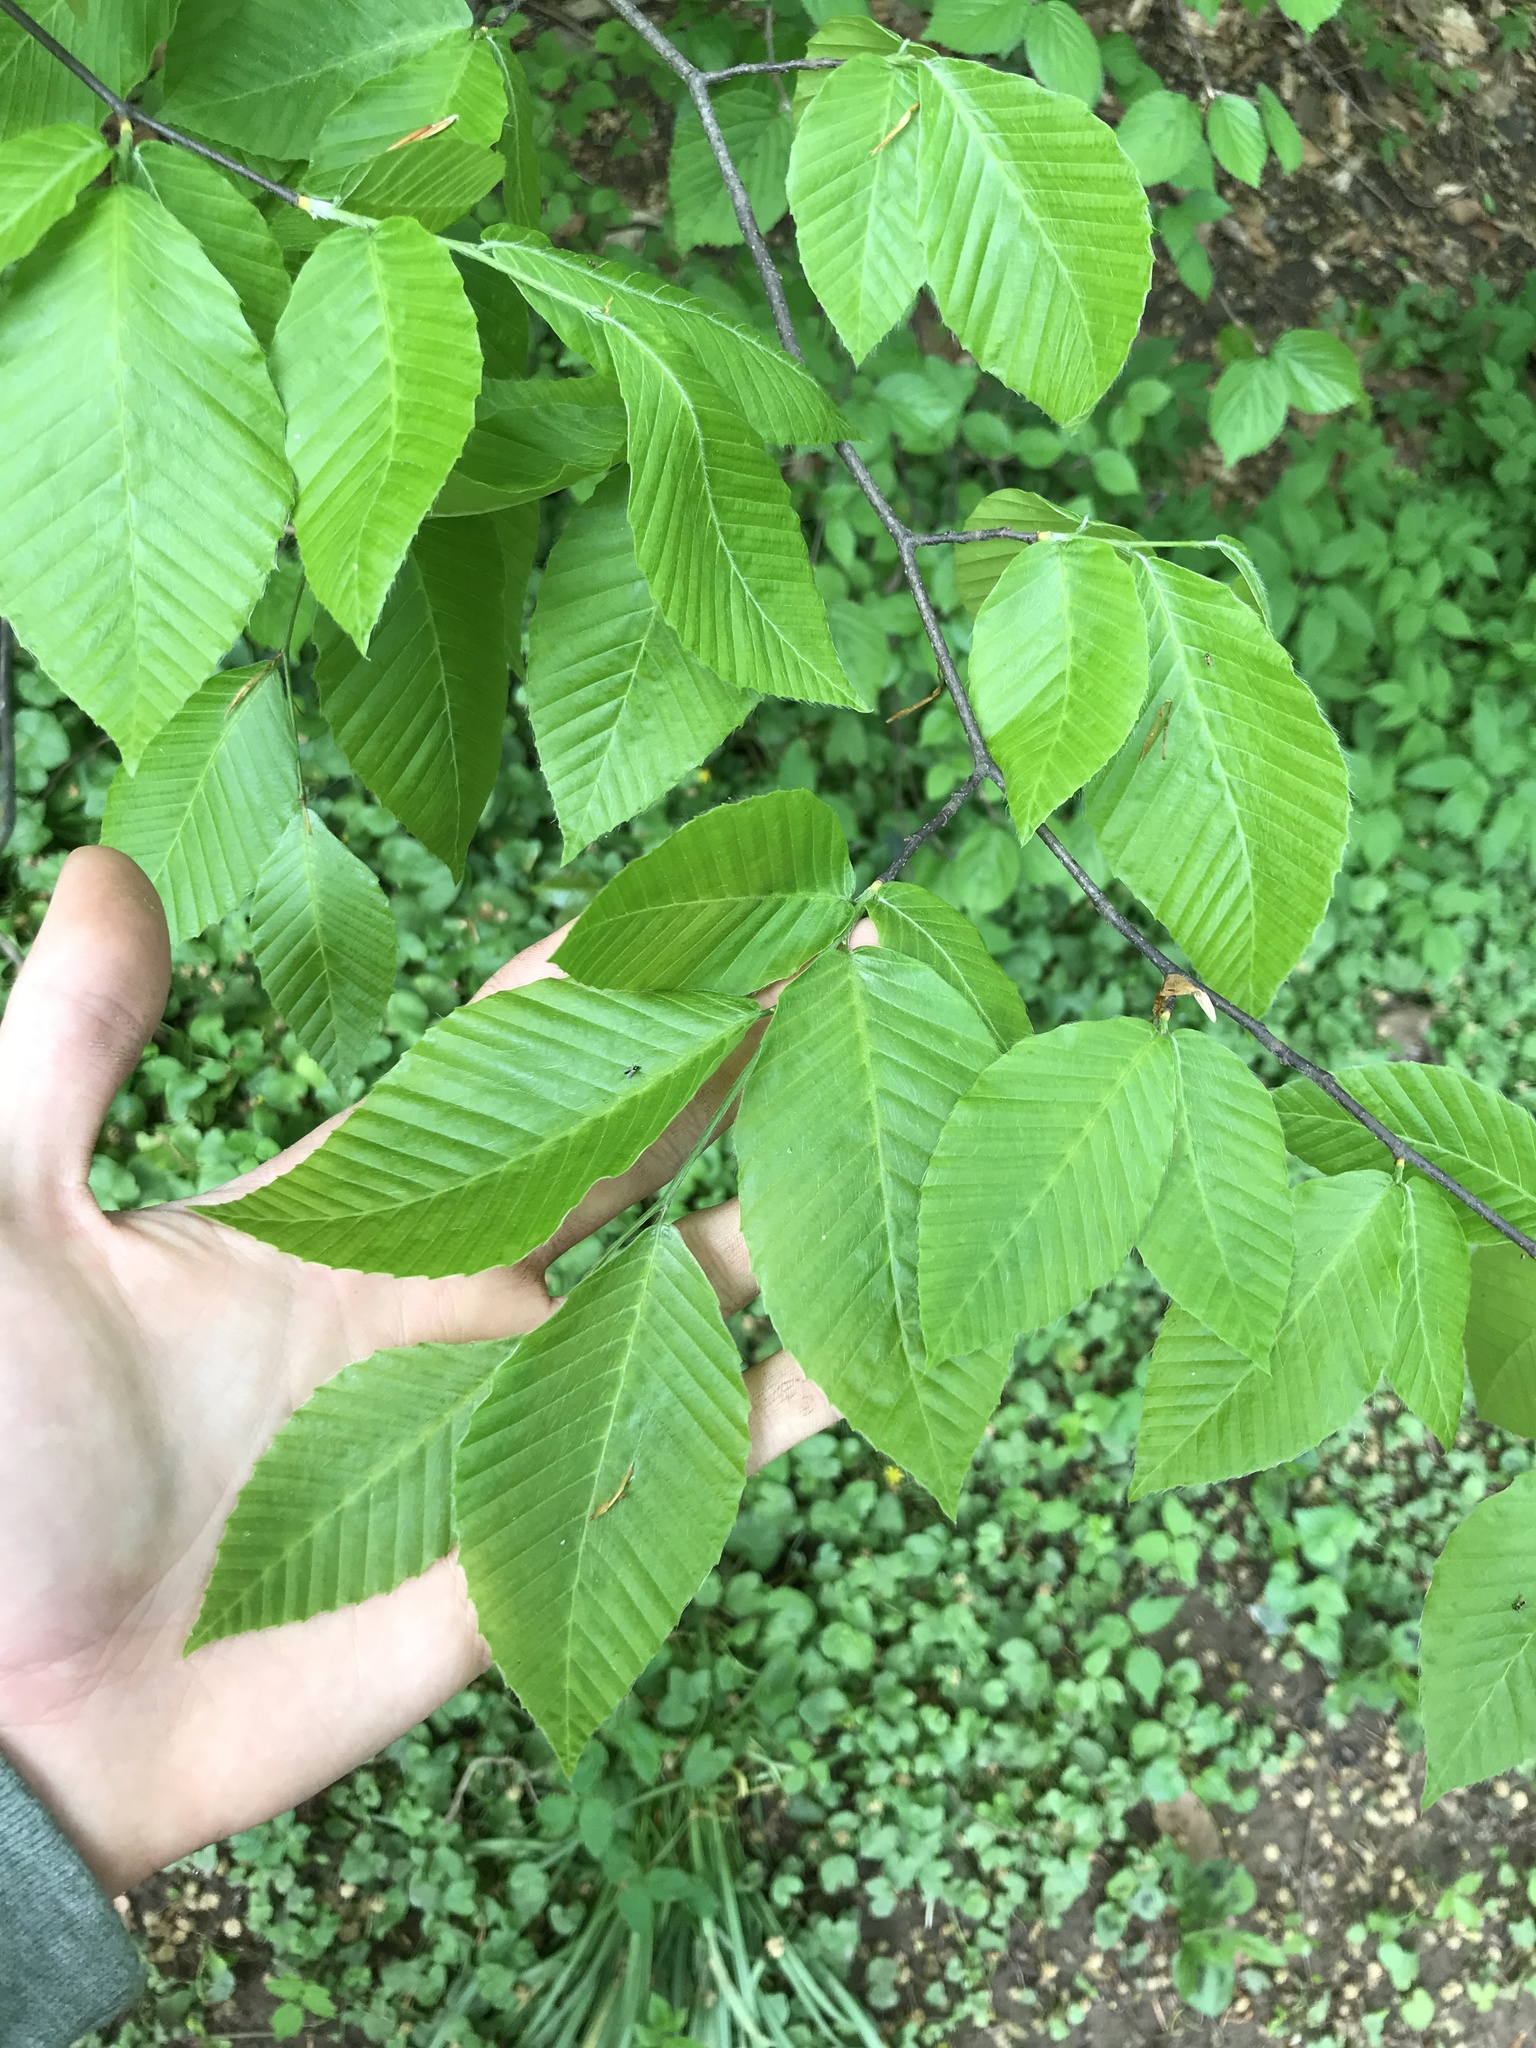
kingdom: Plantae
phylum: Tracheophyta
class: Magnoliopsida
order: Fagales
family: Fagaceae
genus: Fagus
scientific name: Fagus grandifolia
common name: American beech
